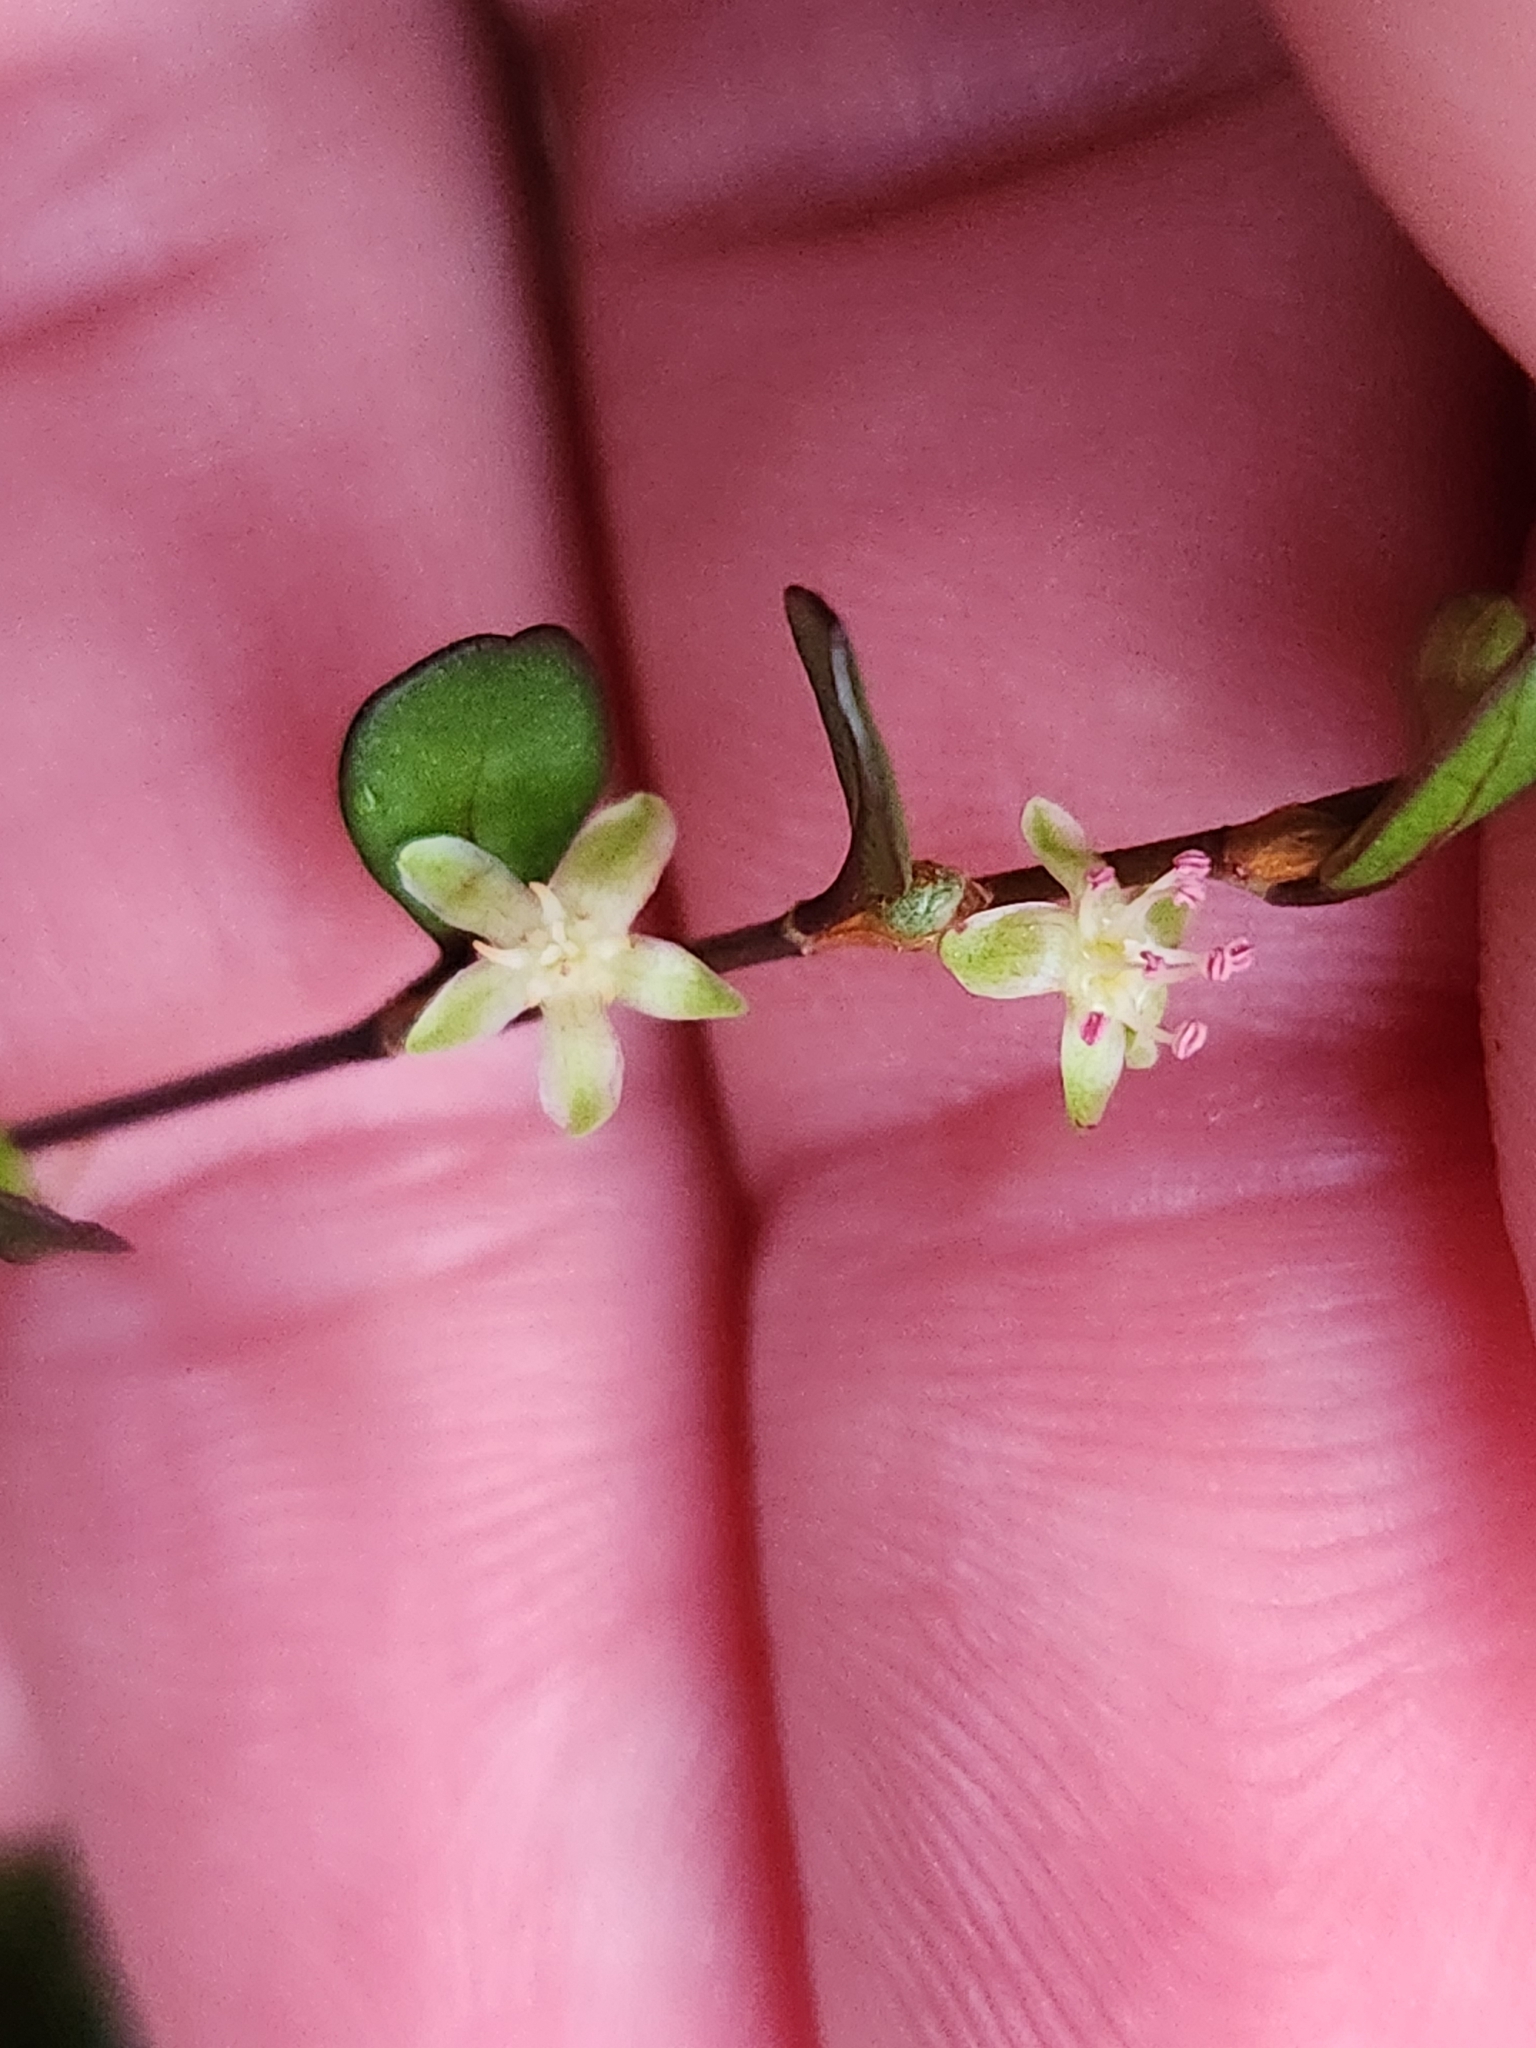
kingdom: Plantae
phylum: Tracheophyta
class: Magnoliopsida
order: Caryophyllales
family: Polygonaceae
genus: Muehlenbeckia
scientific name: Muehlenbeckia axillaris
